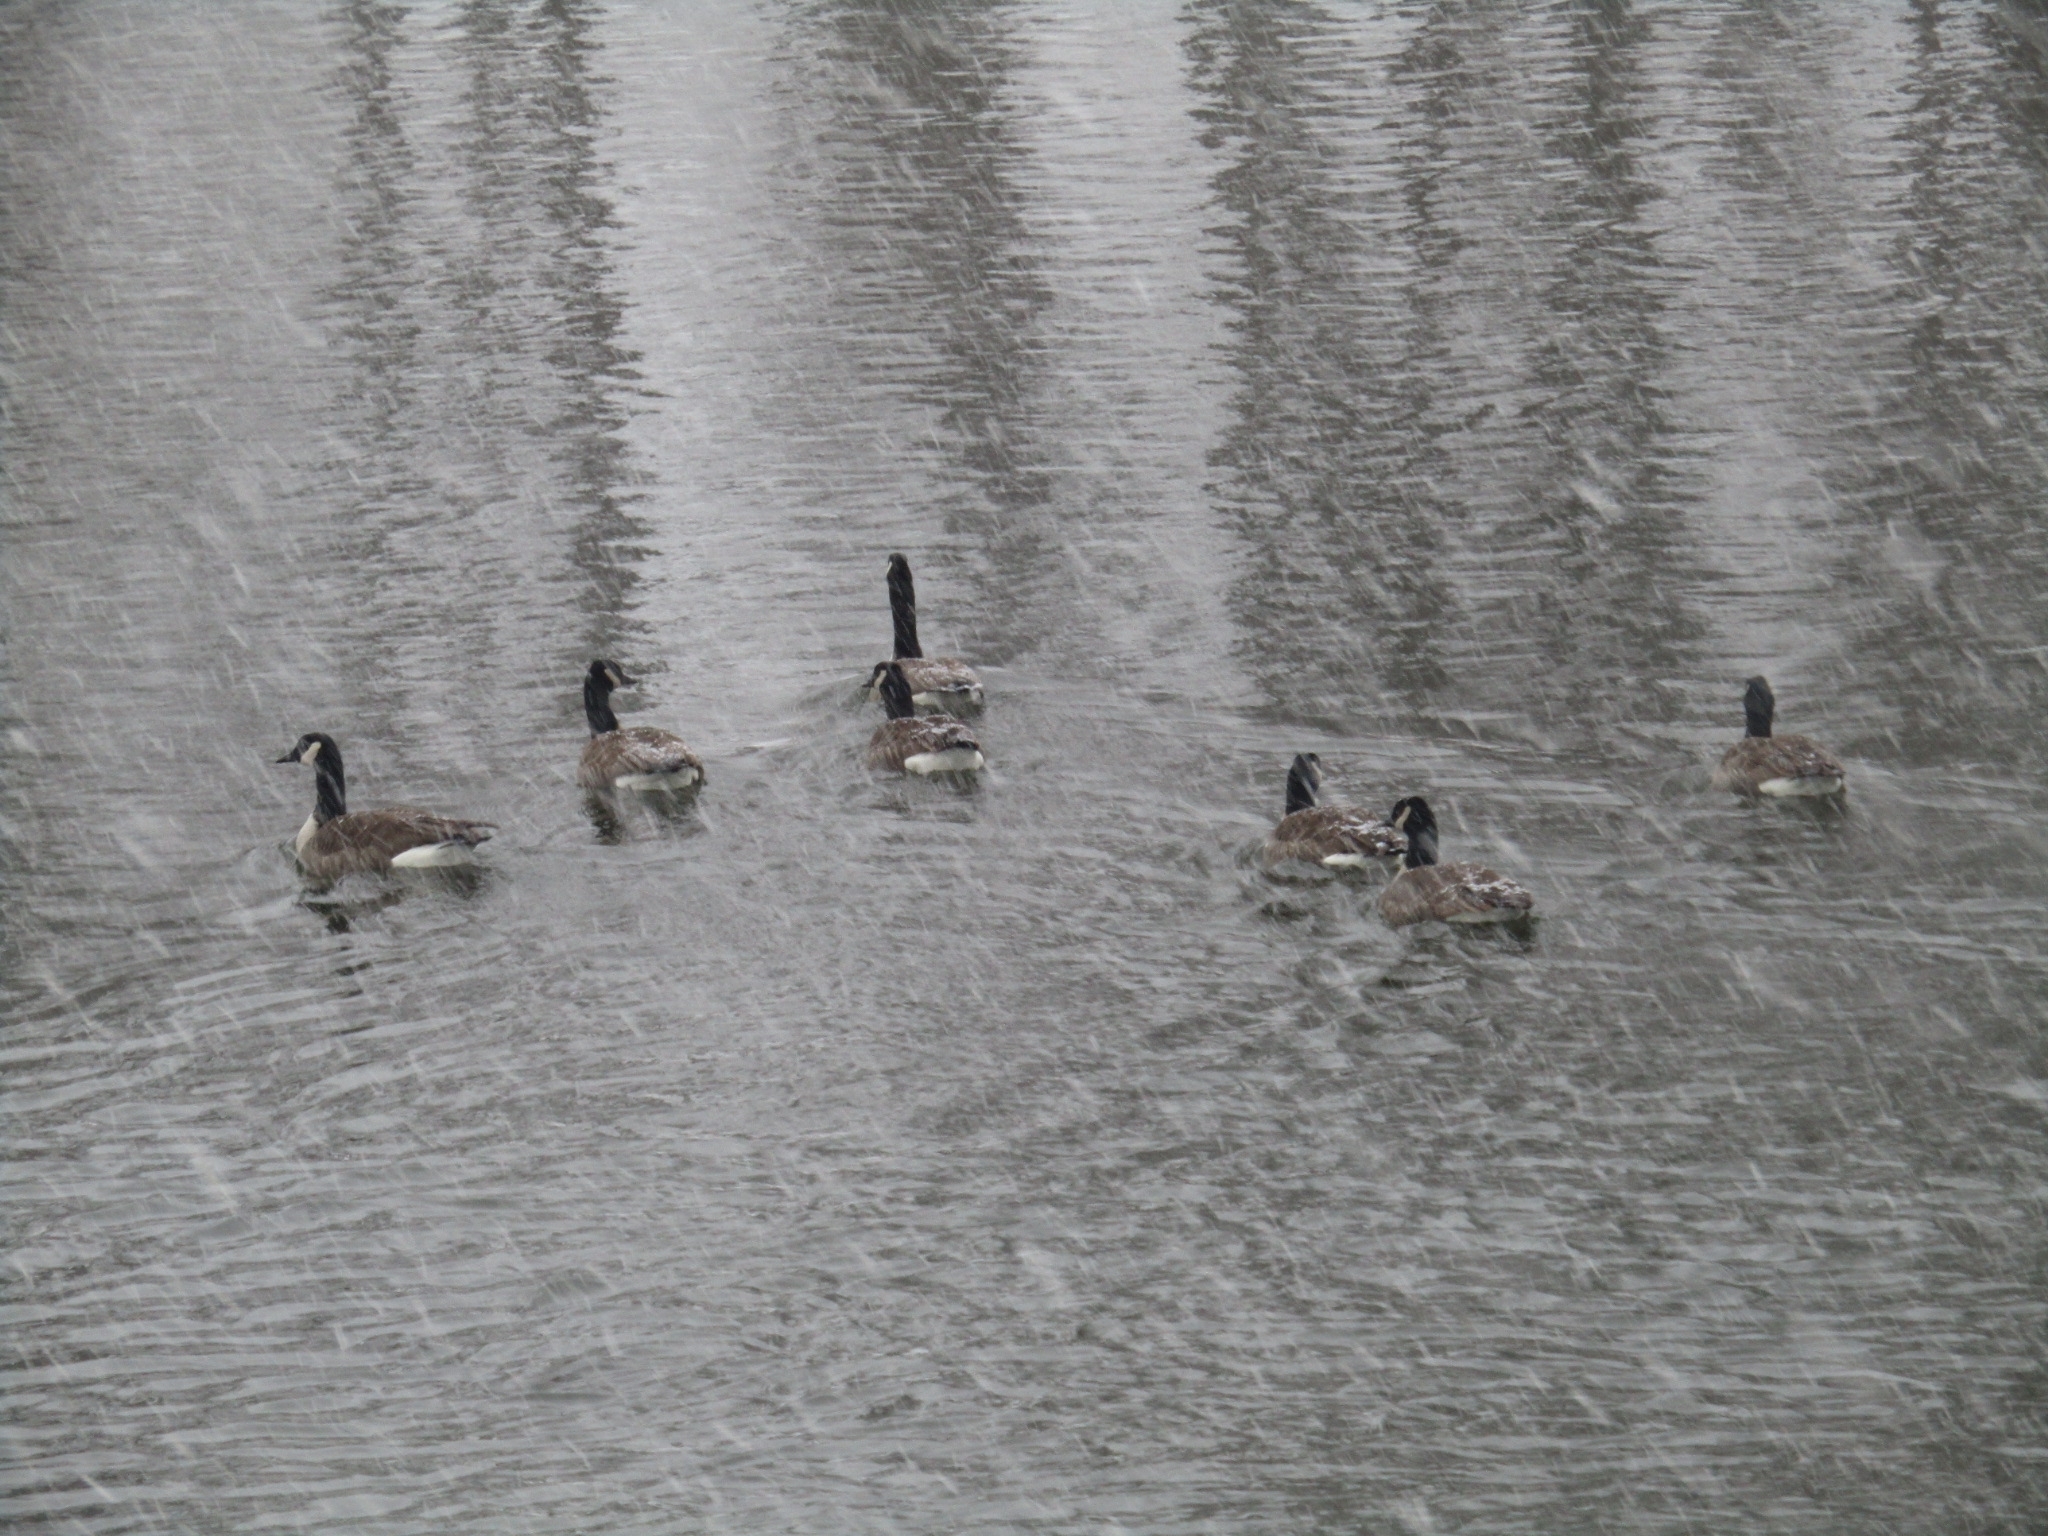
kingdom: Animalia
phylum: Chordata
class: Aves
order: Anseriformes
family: Anatidae
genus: Branta
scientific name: Branta canadensis
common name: Canada goose
